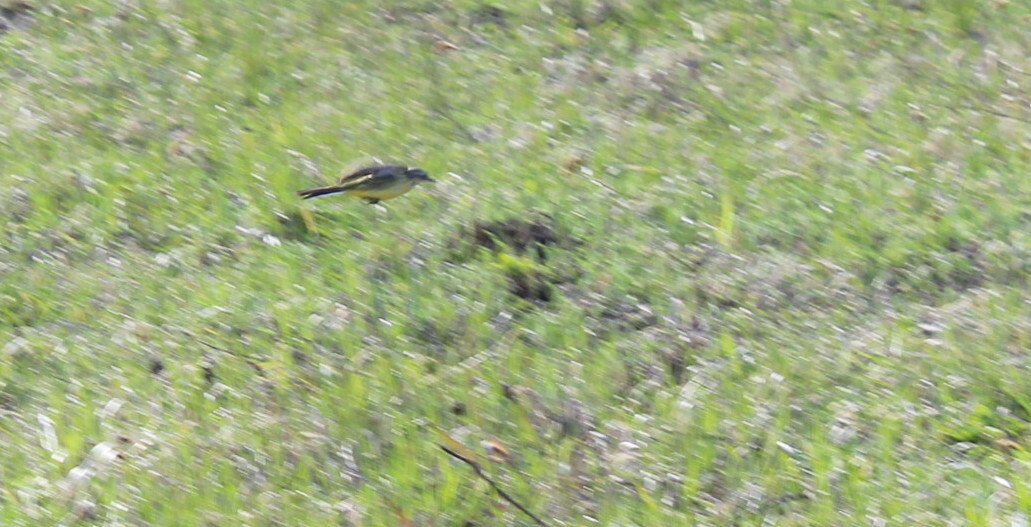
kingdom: Animalia
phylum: Chordata
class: Aves
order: Passeriformes
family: Motacillidae
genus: Motacilla
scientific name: Motacilla flava
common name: Western yellow wagtail
